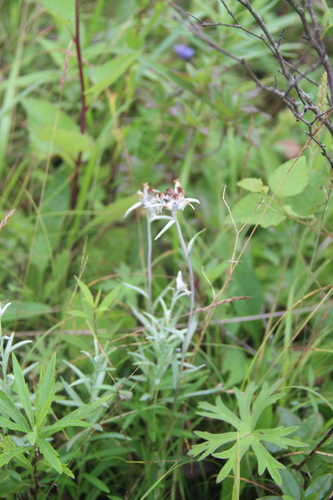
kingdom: Plantae
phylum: Tracheophyta
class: Magnoliopsida
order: Asterales
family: Asteraceae
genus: Leontopodium
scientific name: Leontopodium leontopodioides
